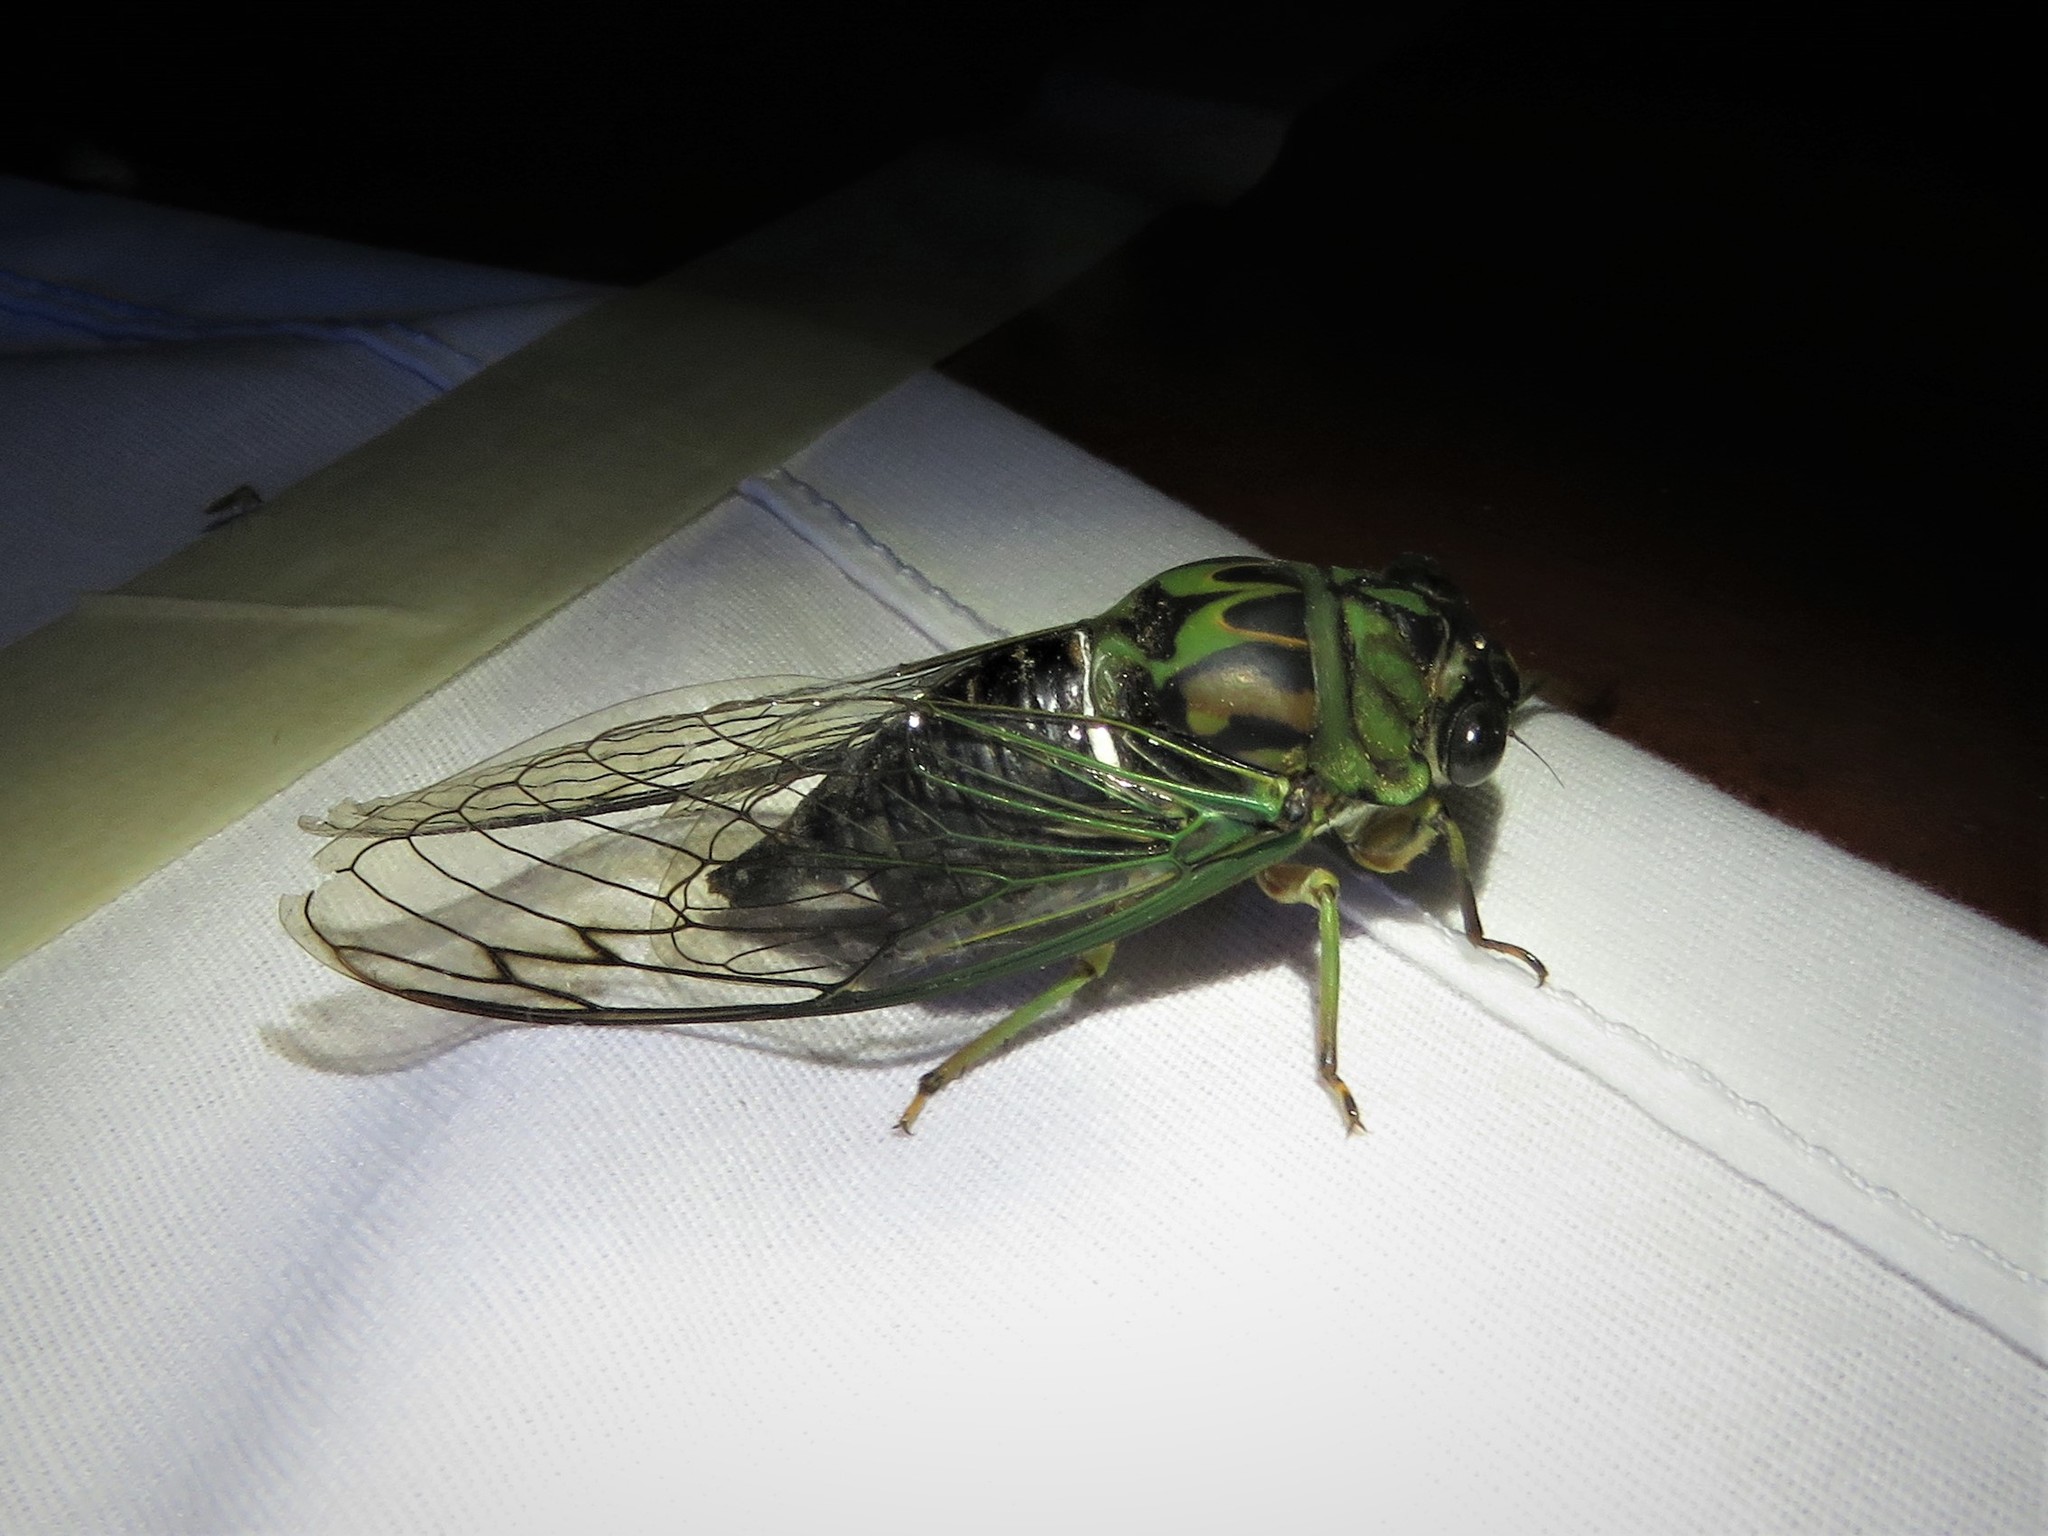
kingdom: Animalia
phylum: Arthropoda
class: Insecta
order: Hemiptera
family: Cicadidae
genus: Neotibicen
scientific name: Neotibicen robinsonianus
